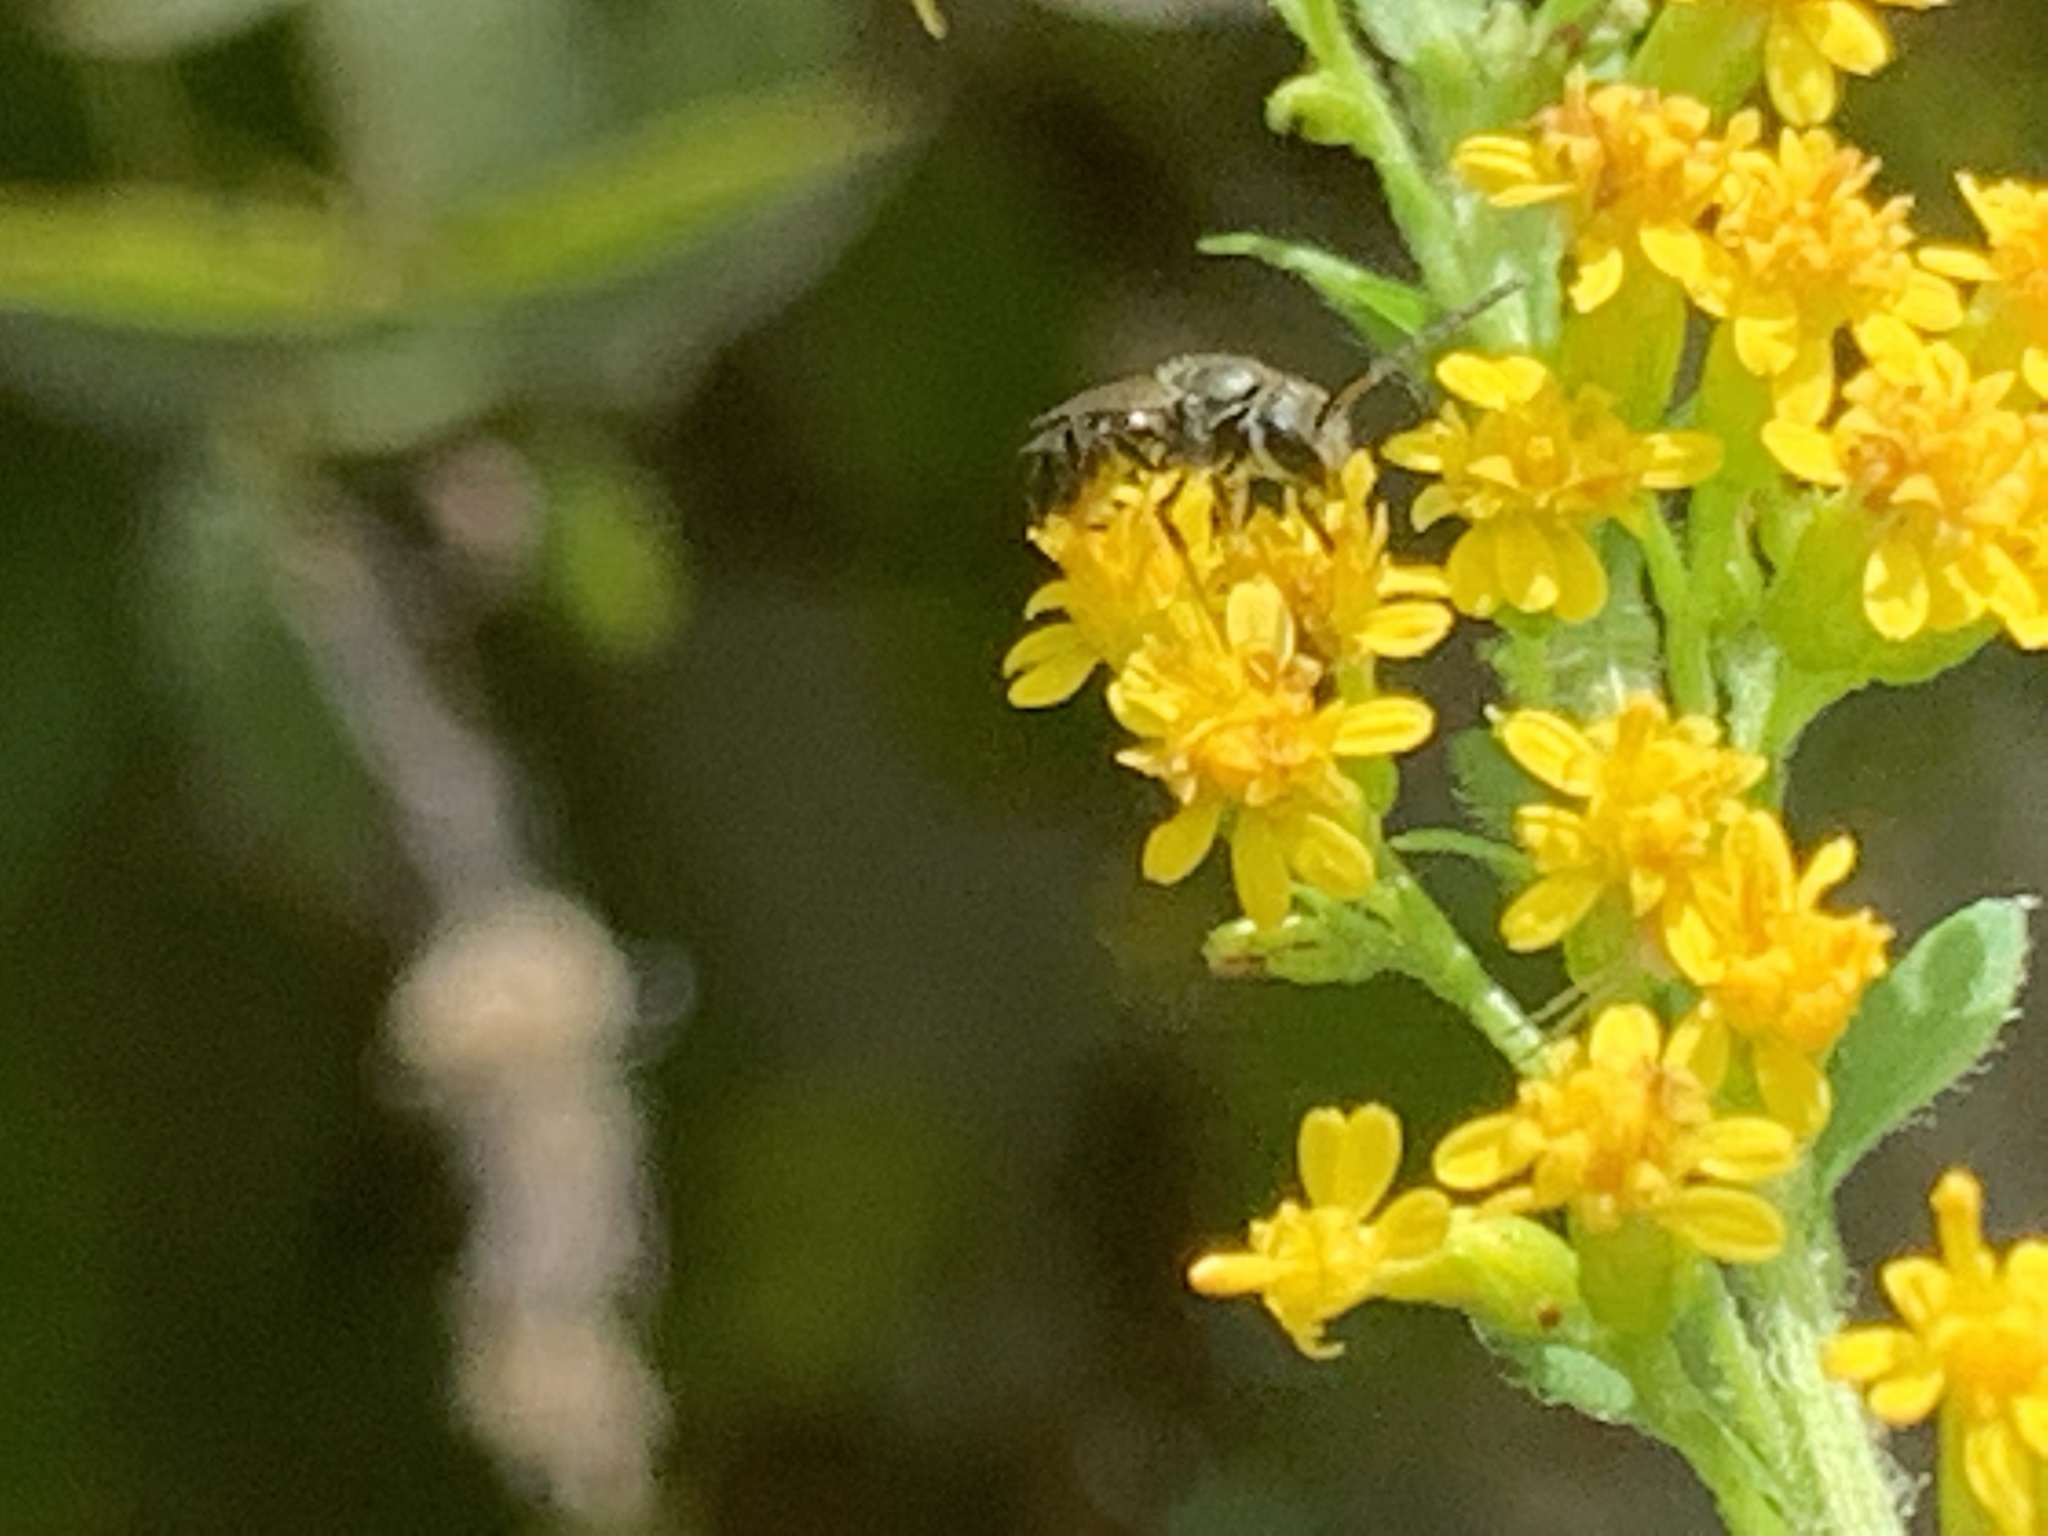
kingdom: Animalia
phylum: Arthropoda
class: Insecta
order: Hymenoptera
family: Halictidae
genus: Dialictus
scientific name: Dialictus
